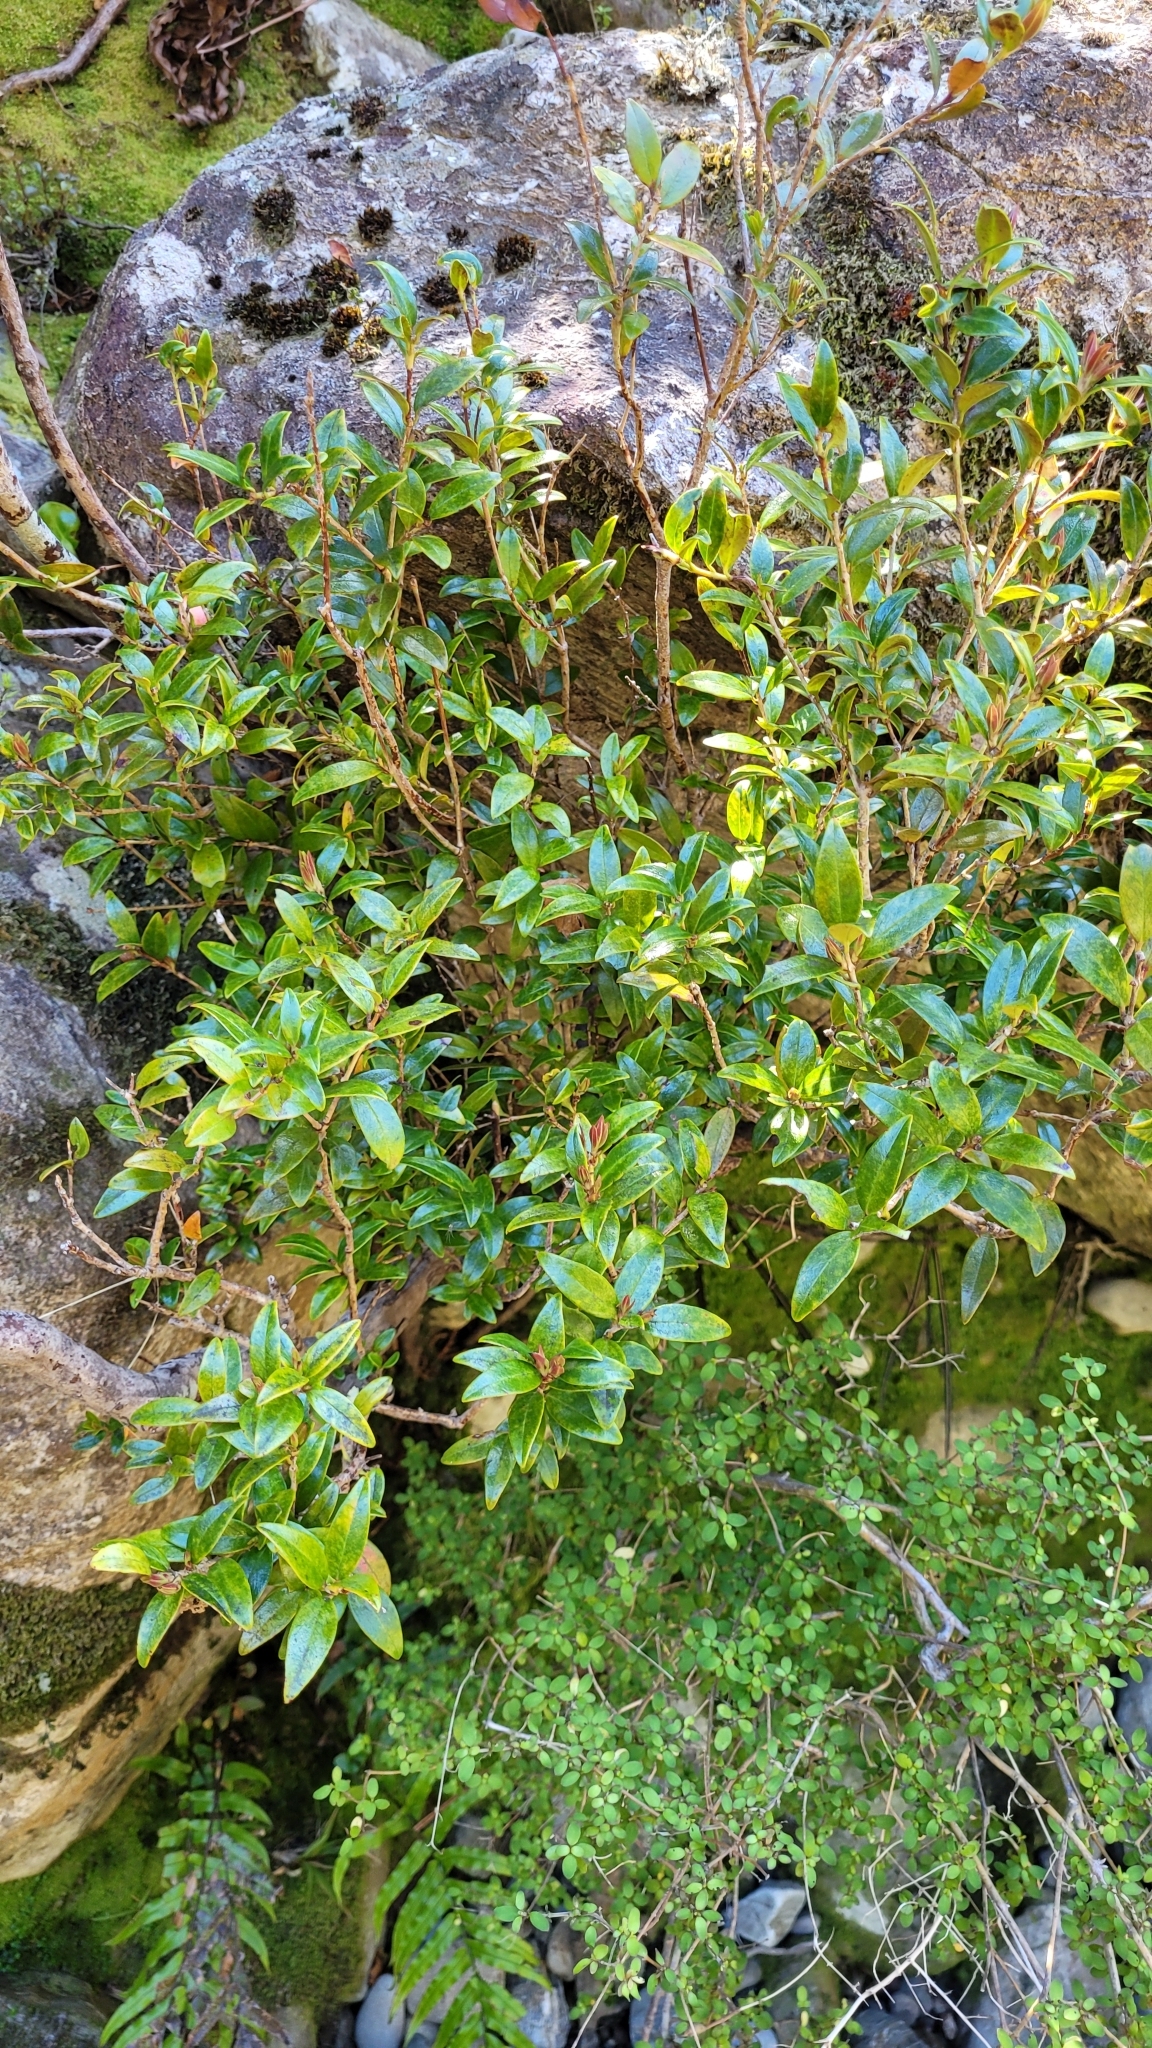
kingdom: Plantae
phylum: Tracheophyta
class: Magnoliopsida
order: Myrtales
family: Myrtaceae
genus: Metrosideros
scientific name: Metrosideros umbellata
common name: Southern rata
